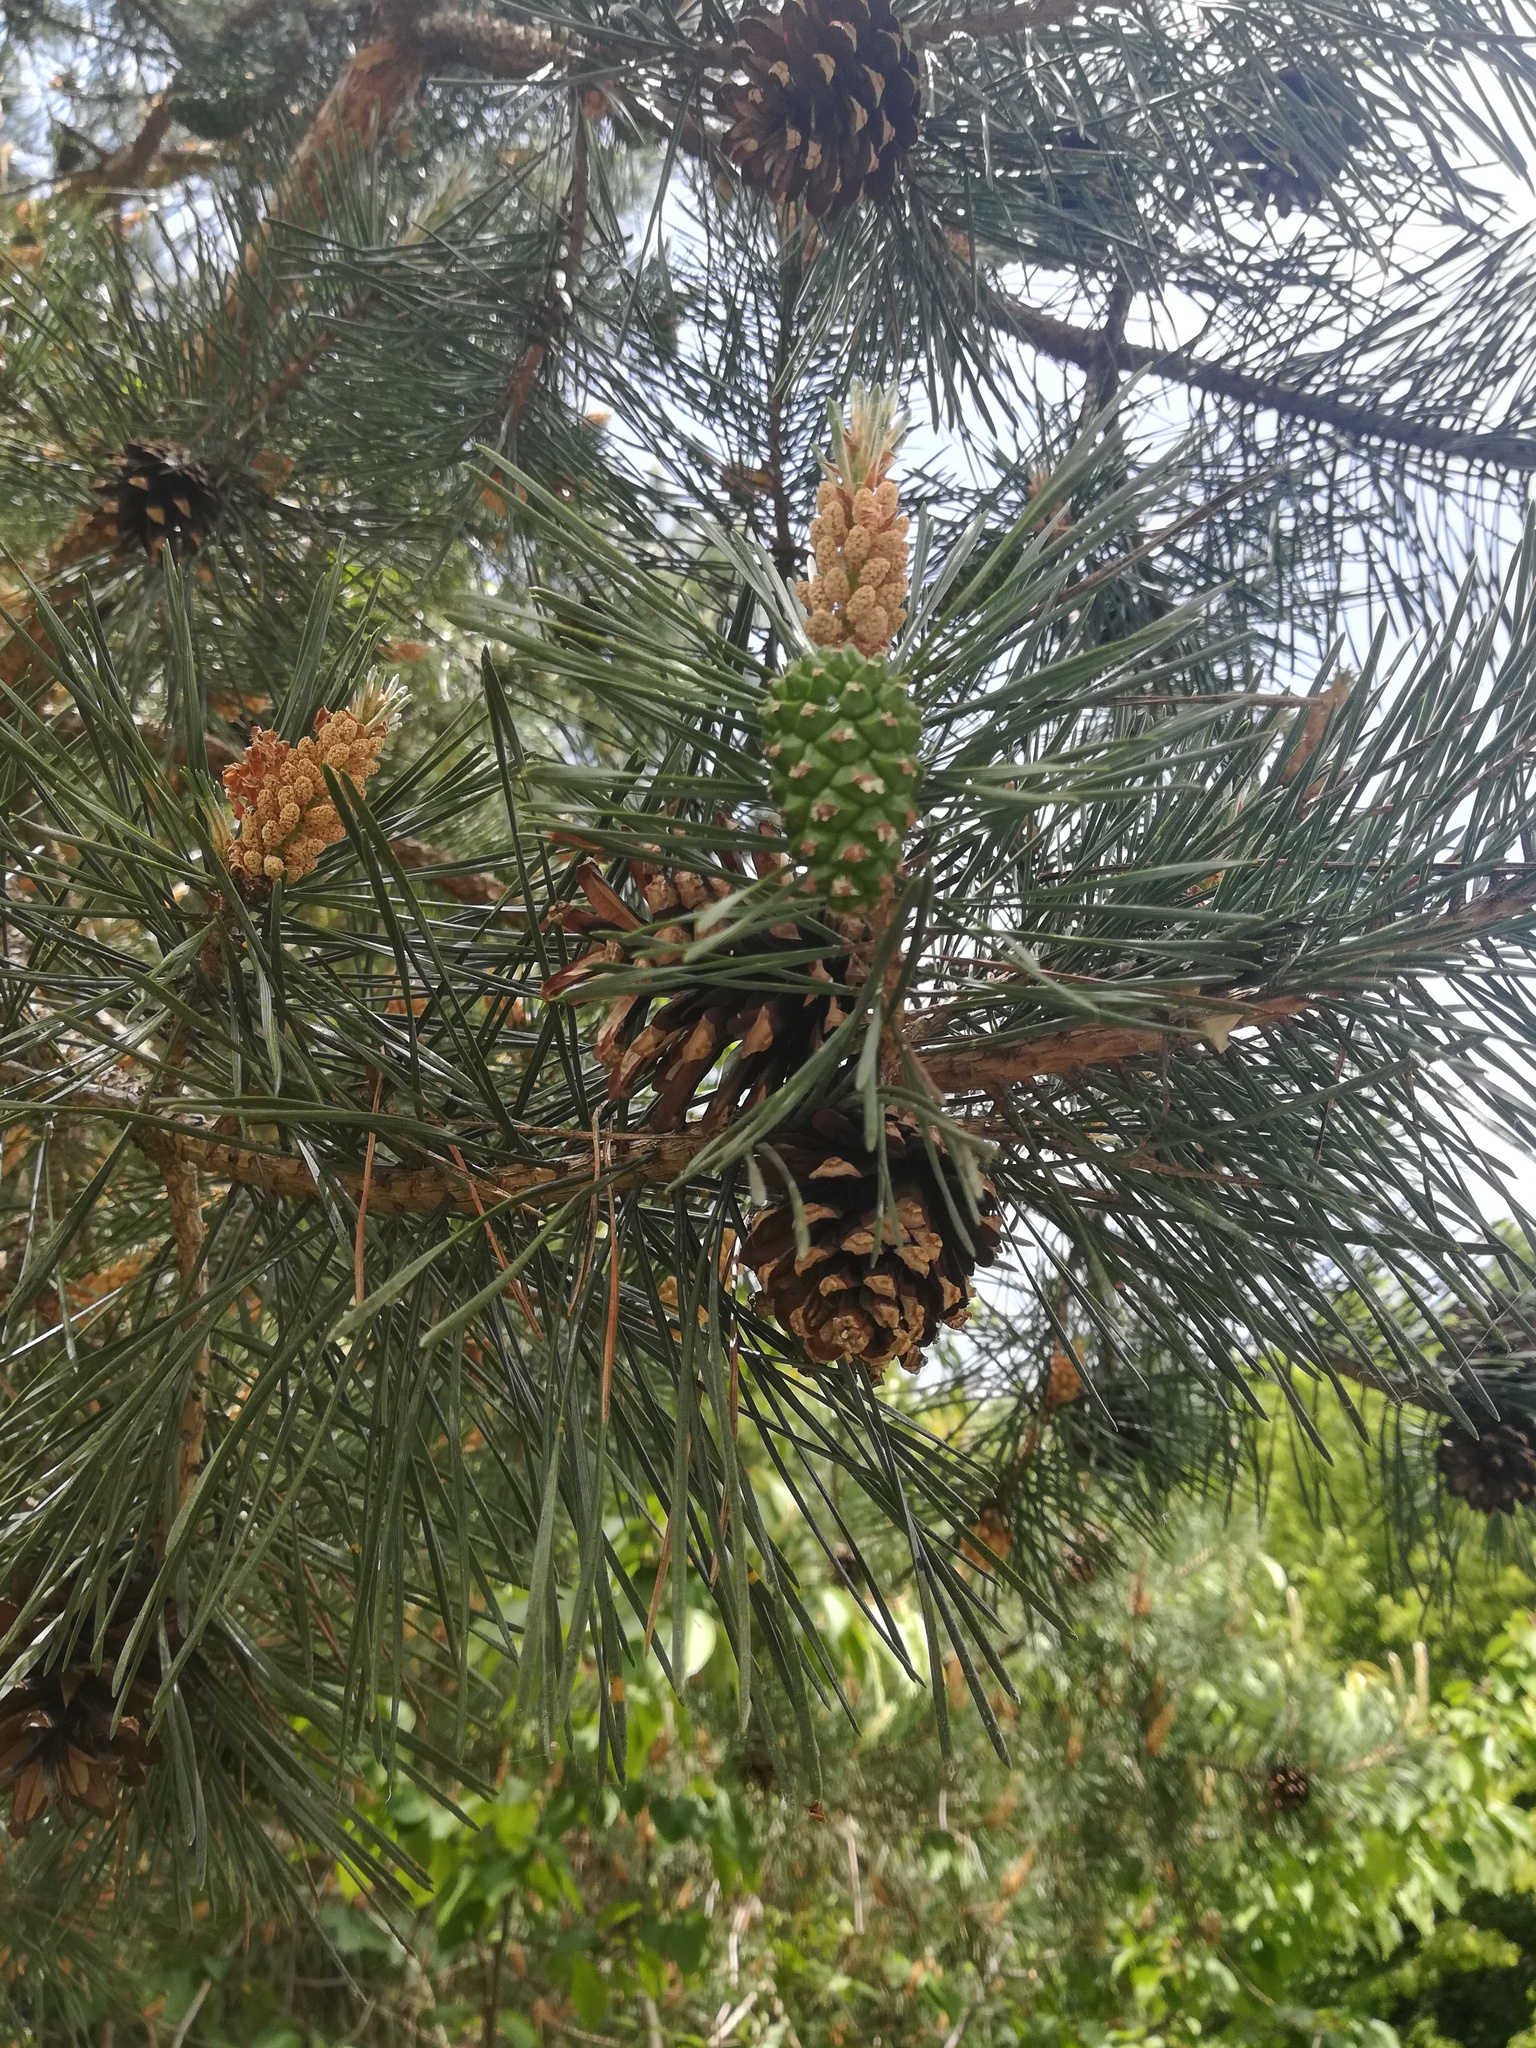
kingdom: Plantae
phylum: Tracheophyta
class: Pinopsida
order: Pinales
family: Pinaceae
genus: Pinus
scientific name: Pinus sylvestris
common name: Scots pine
